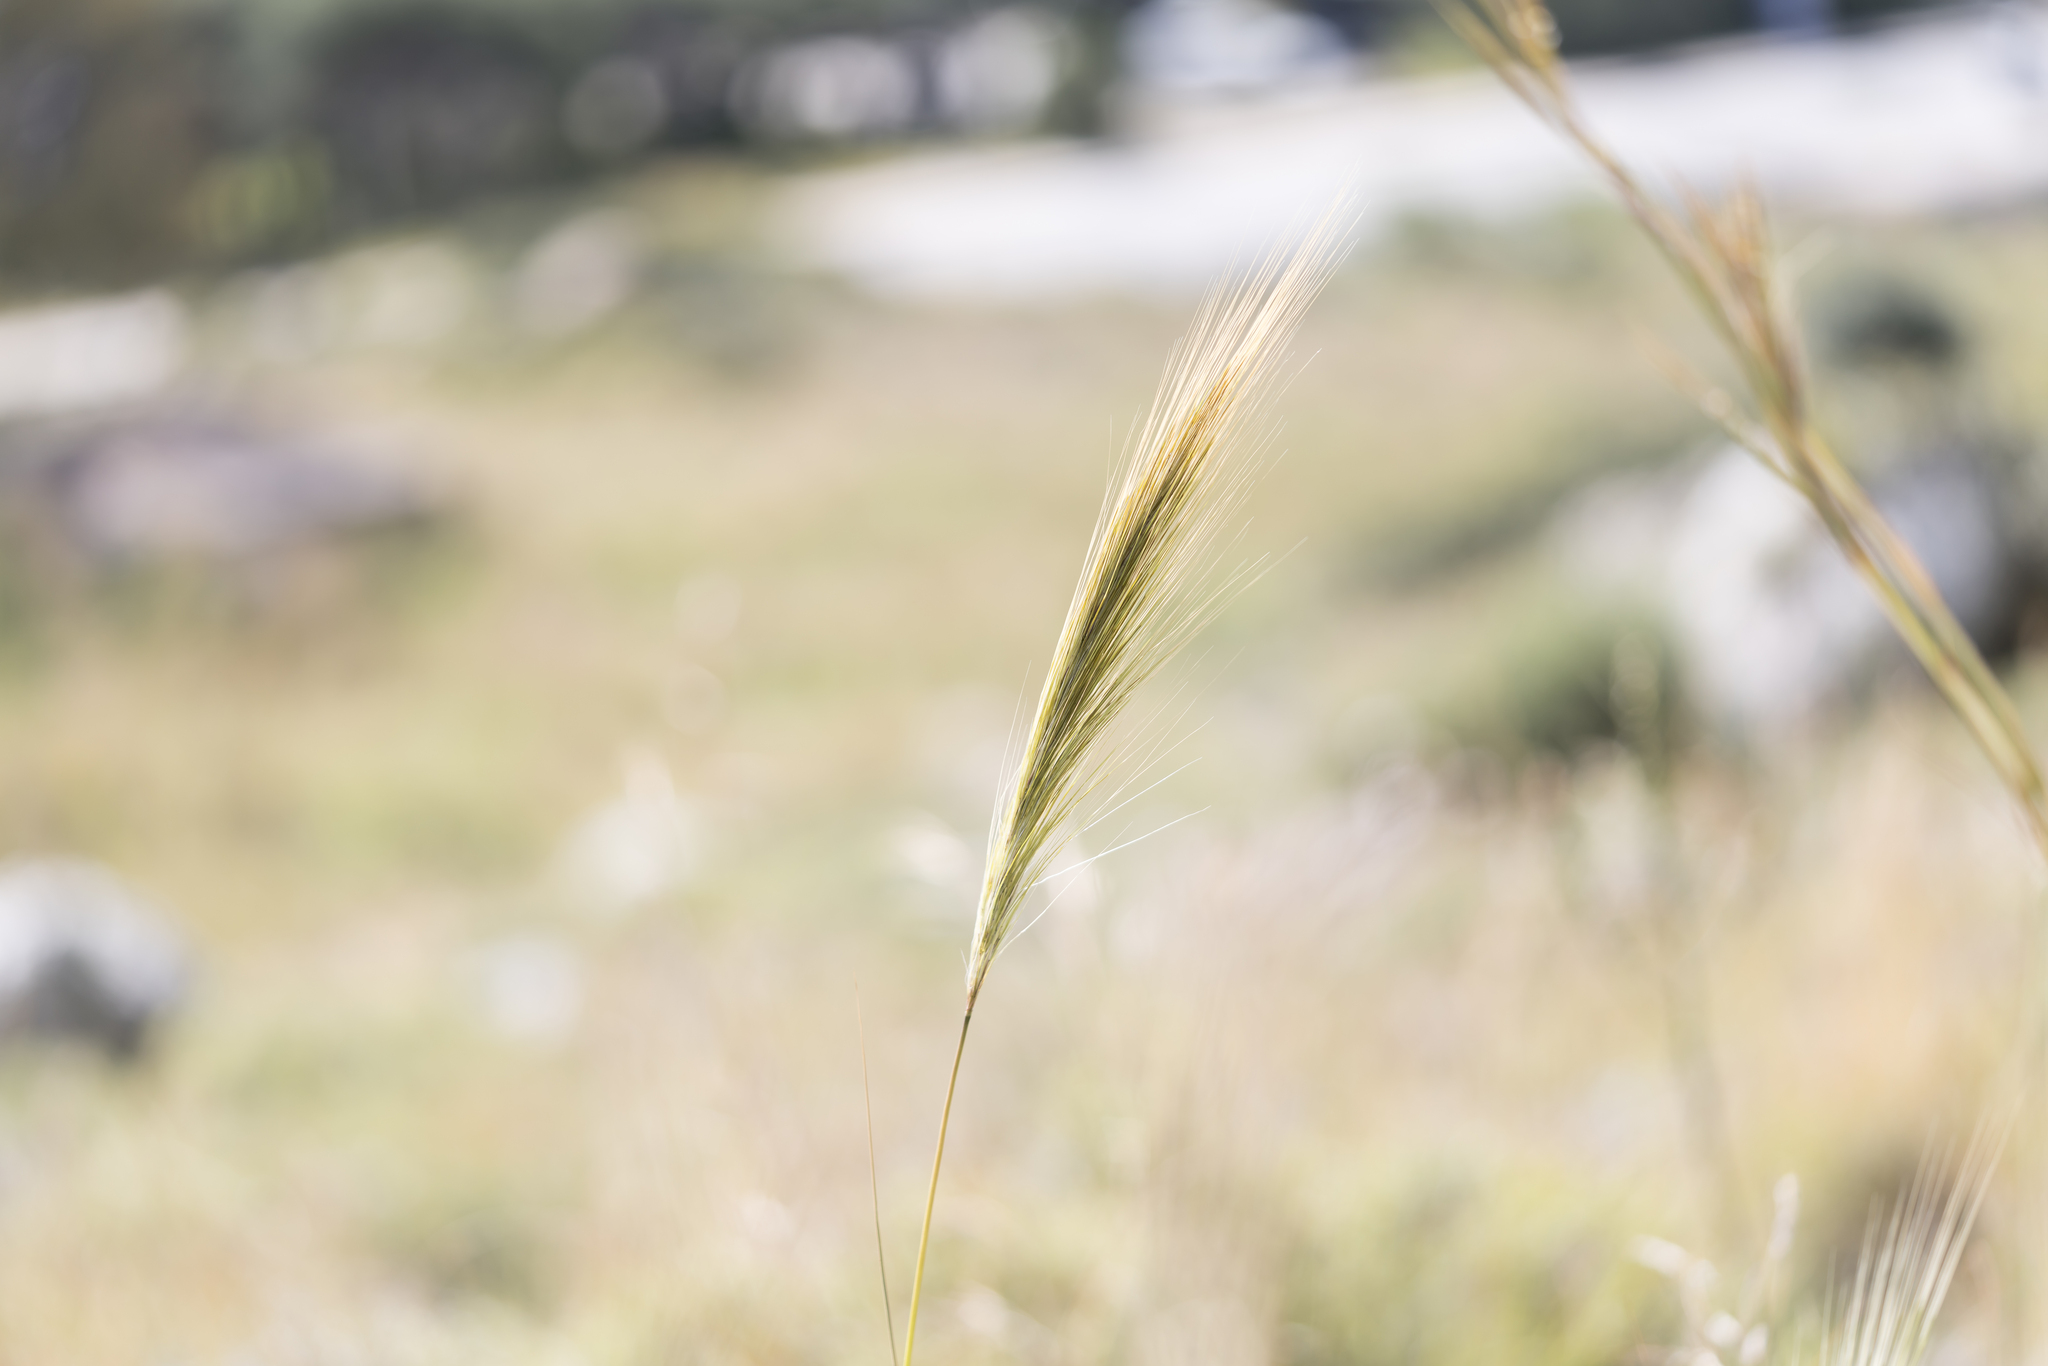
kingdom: Plantae
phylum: Tracheophyta
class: Liliopsida
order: Poales
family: Poaceae
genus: Stipellula
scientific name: Stipellula capensis
